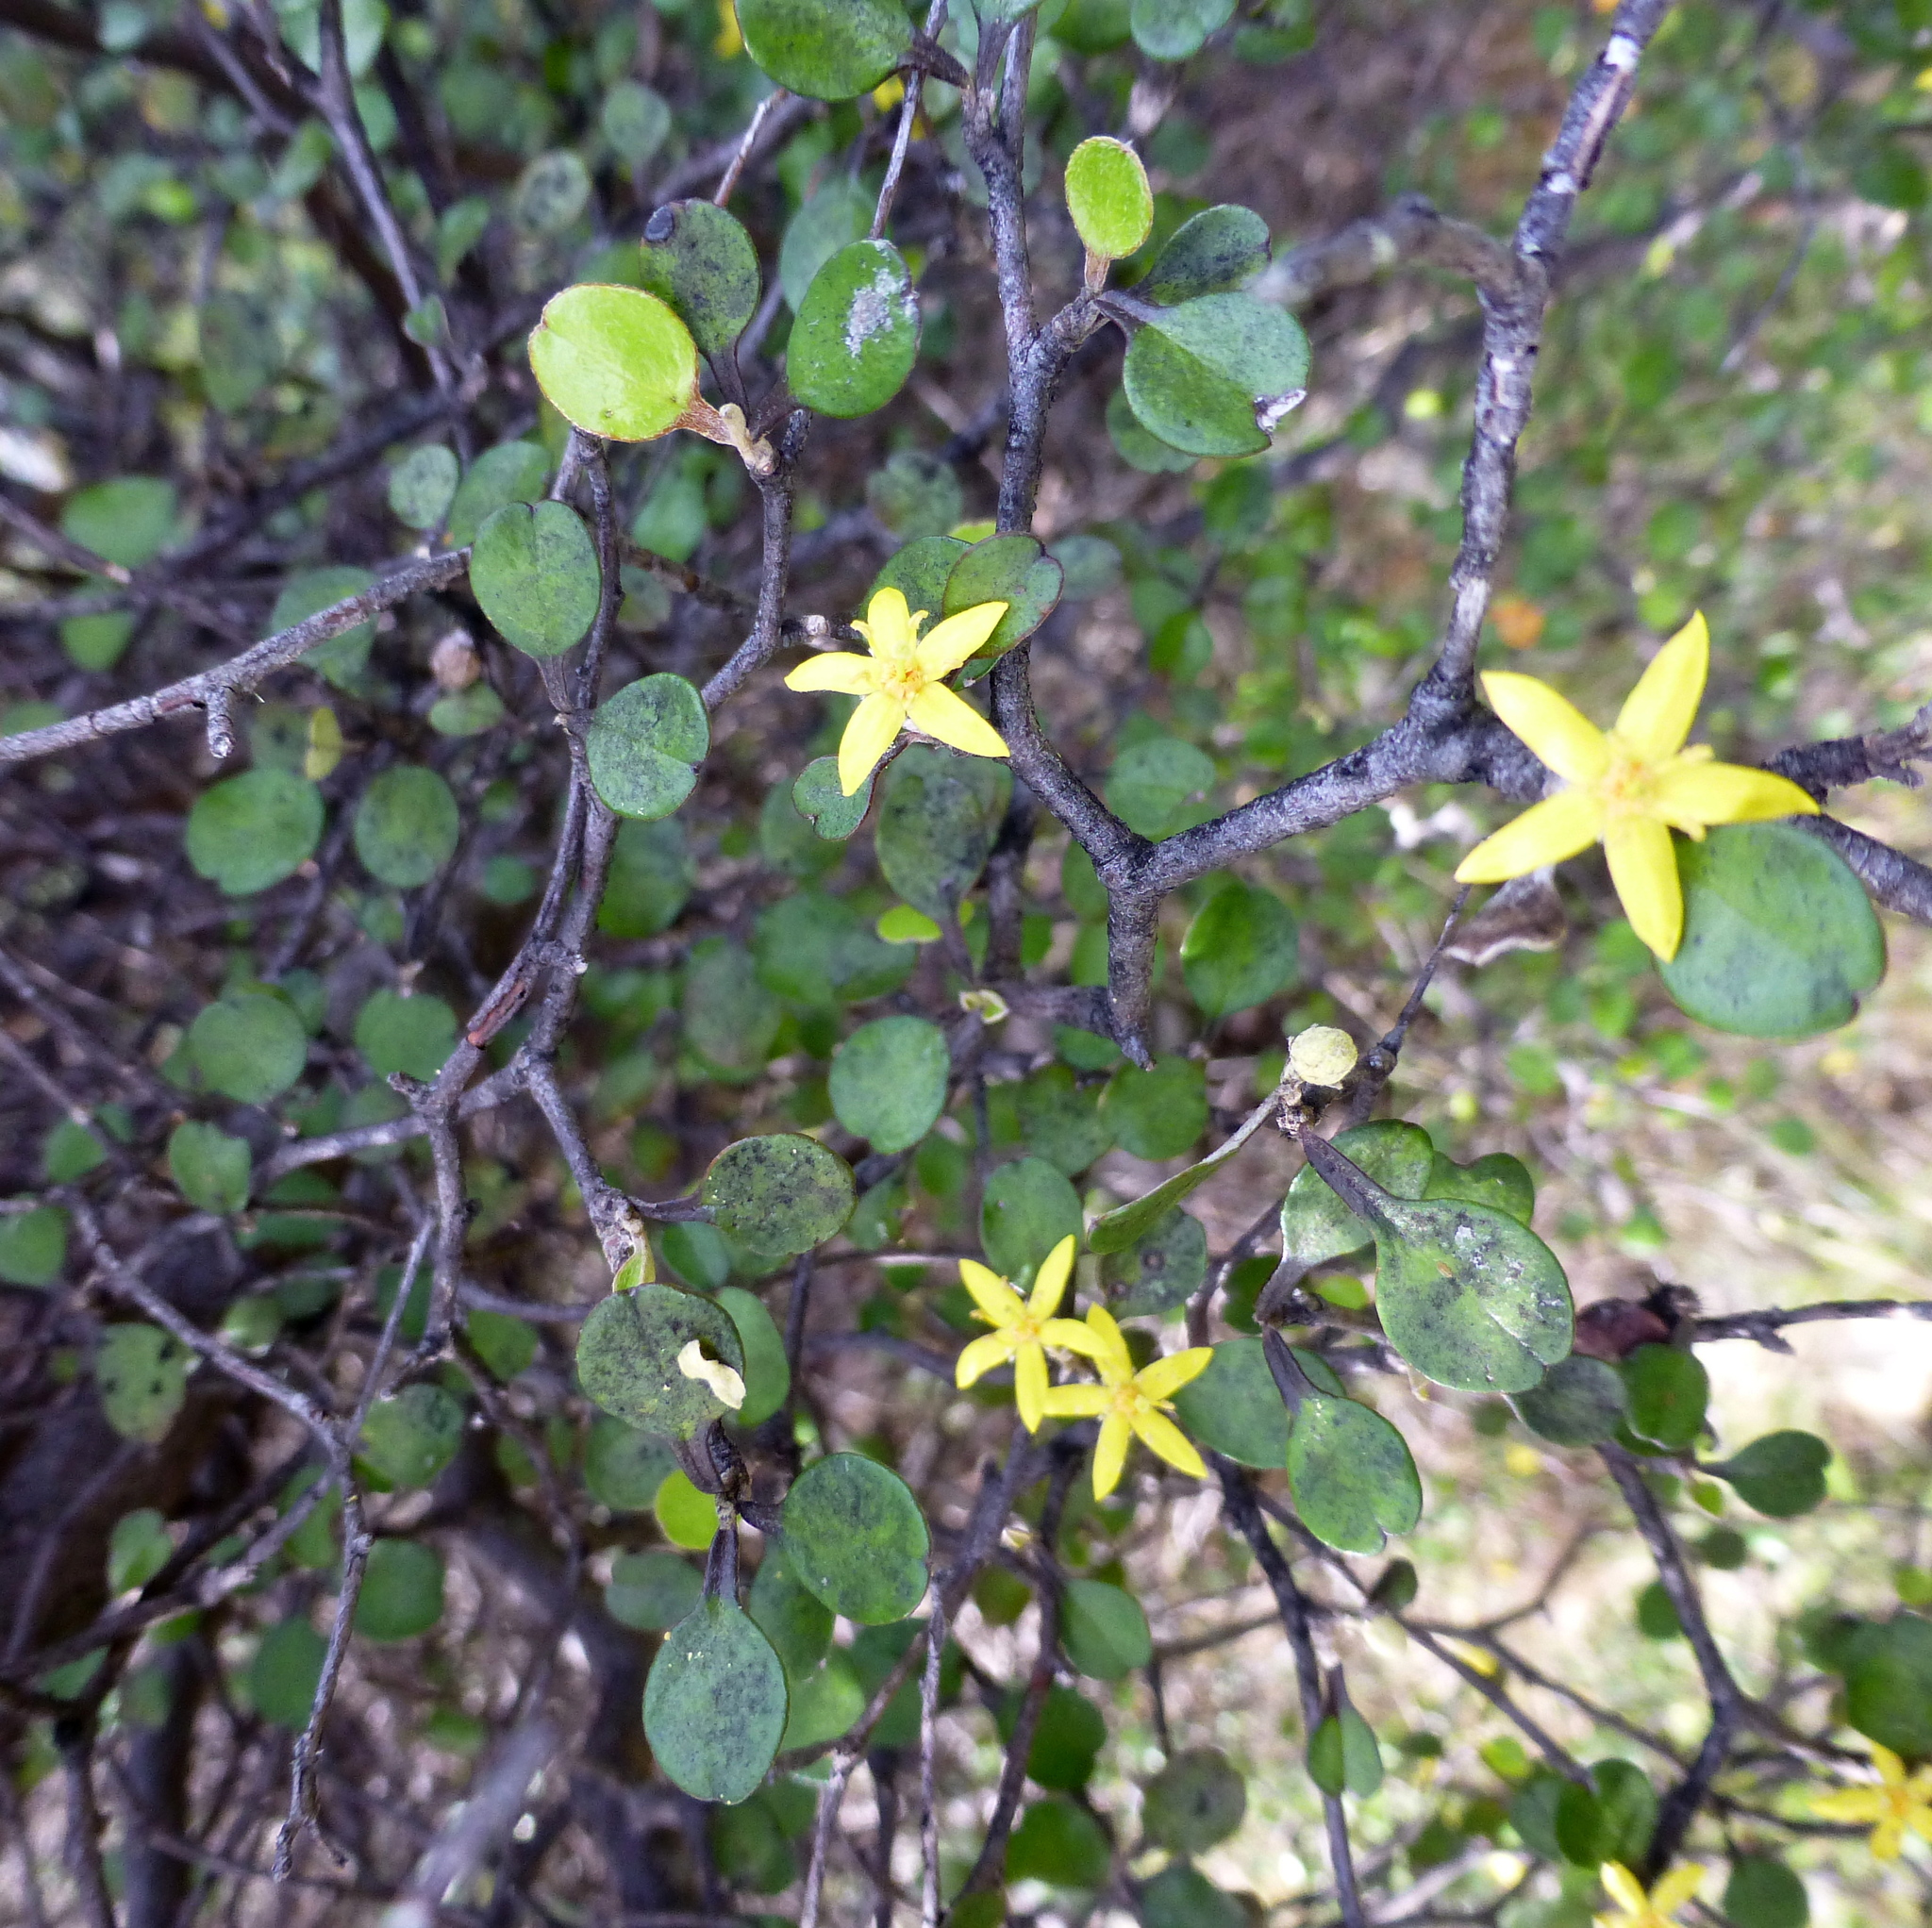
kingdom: Plantae
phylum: Tracheophyta
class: Magnoliopsida
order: Asterales
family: Argophyllaceae
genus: Corokia
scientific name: Corokia cotoneaster
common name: Wire nettingbush
